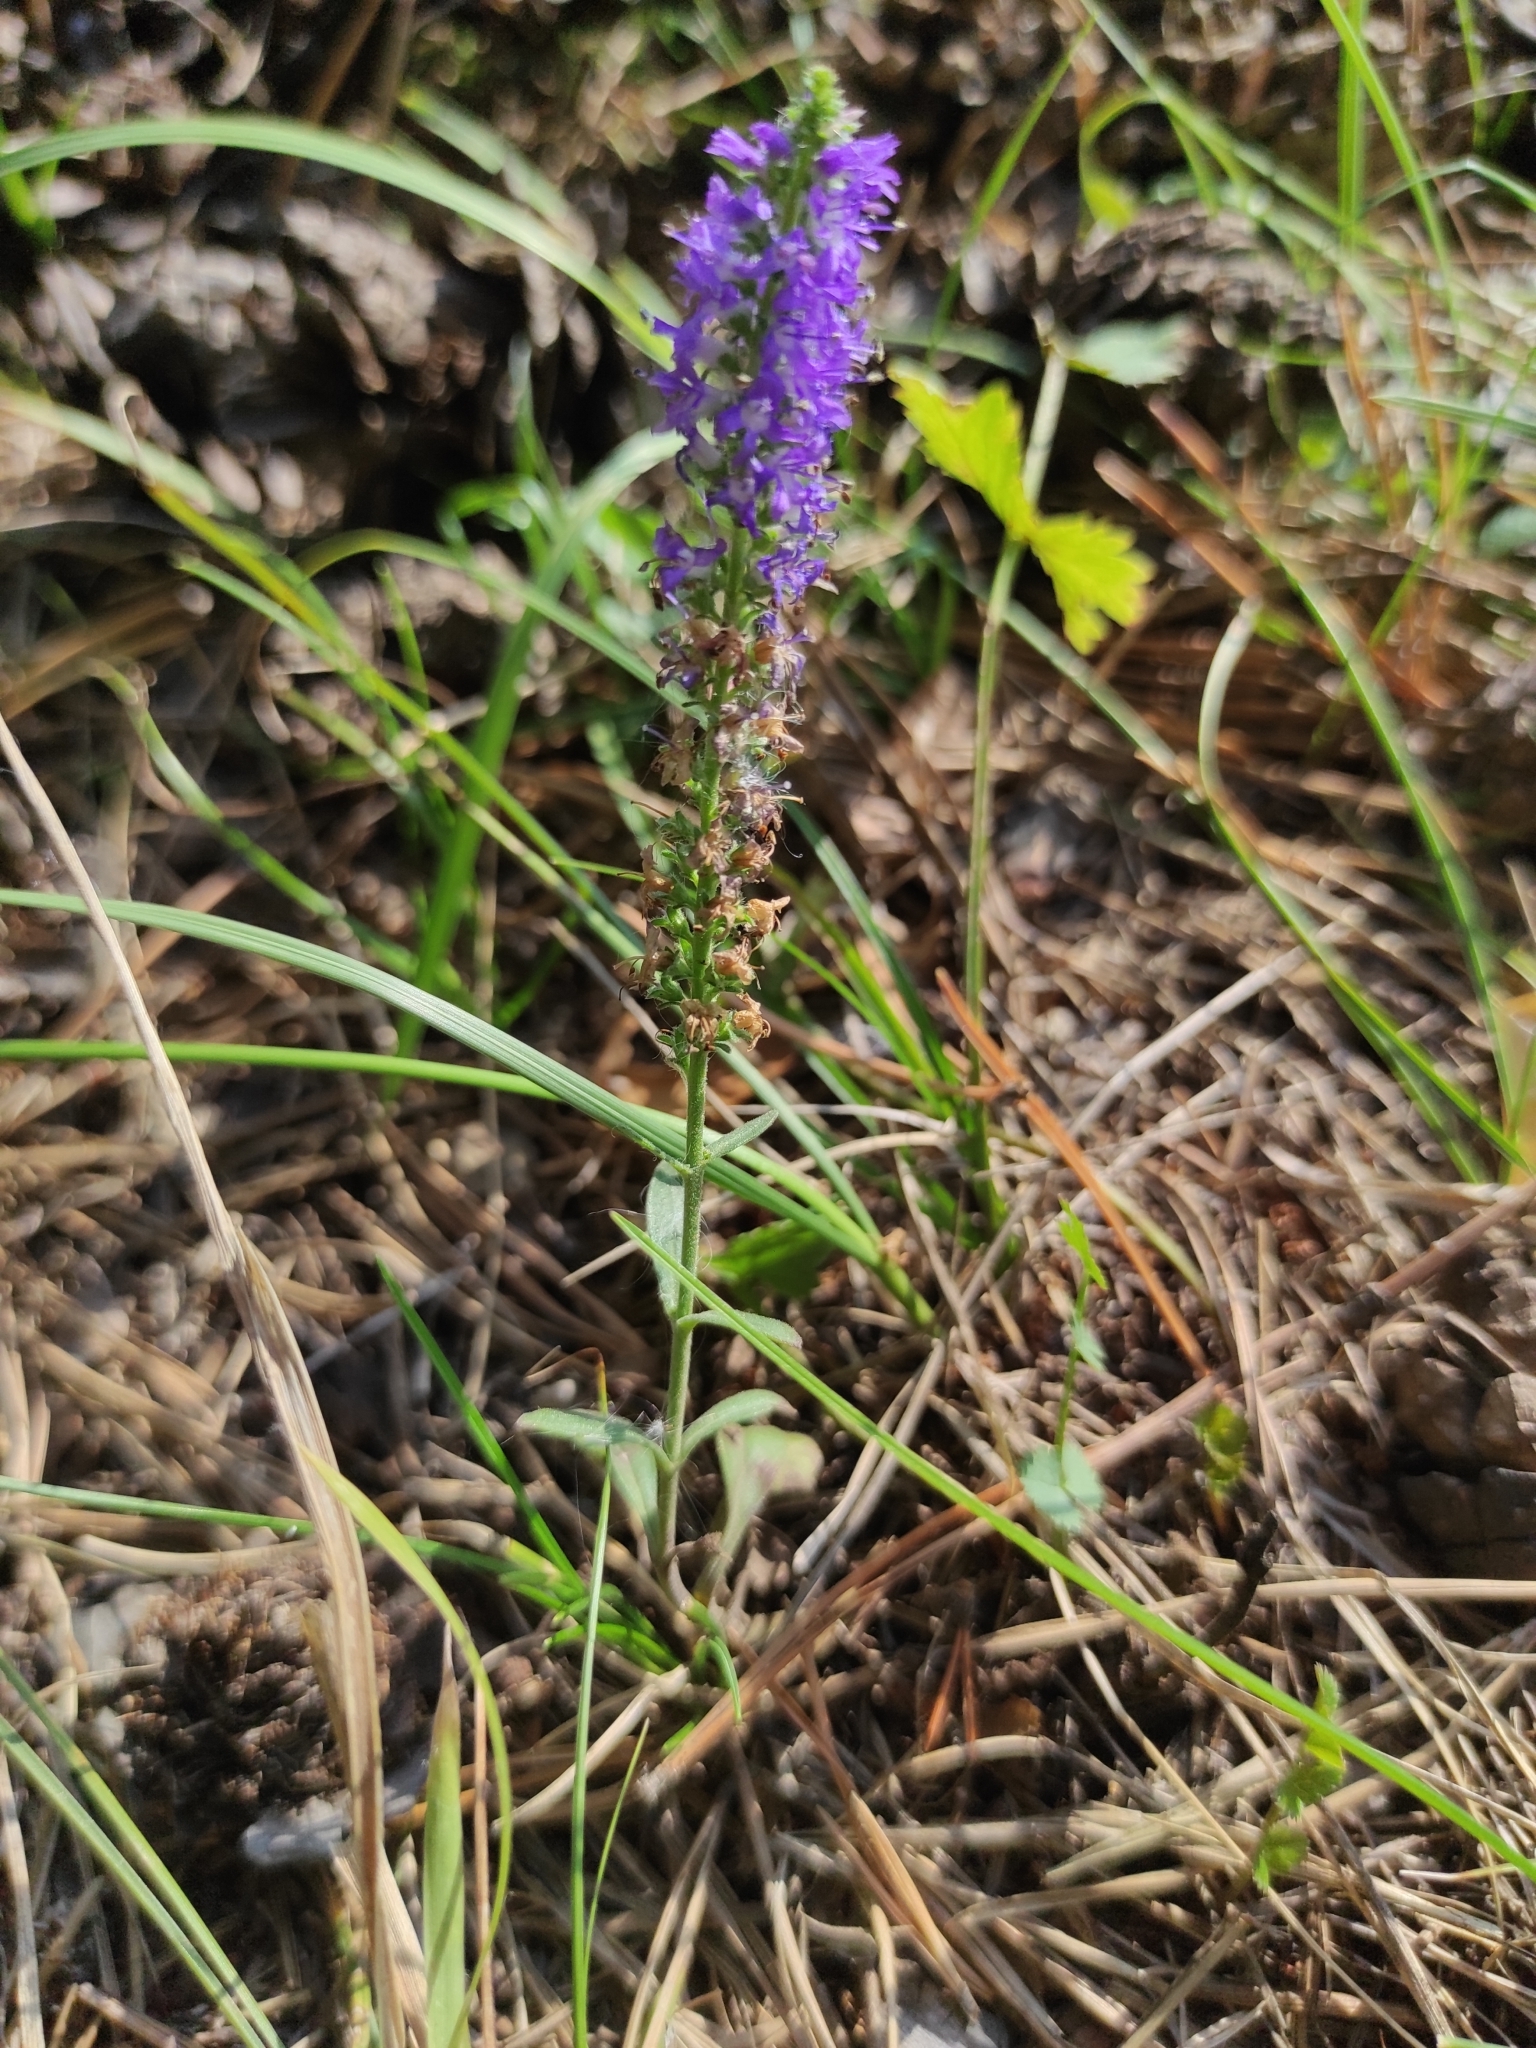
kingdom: Plantae
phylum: Tracheophyta
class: Magnoliopsida
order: Lamiales
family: Plantaginaceae
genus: Veronica
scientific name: Veronica spicata
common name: Spiked speedwell
